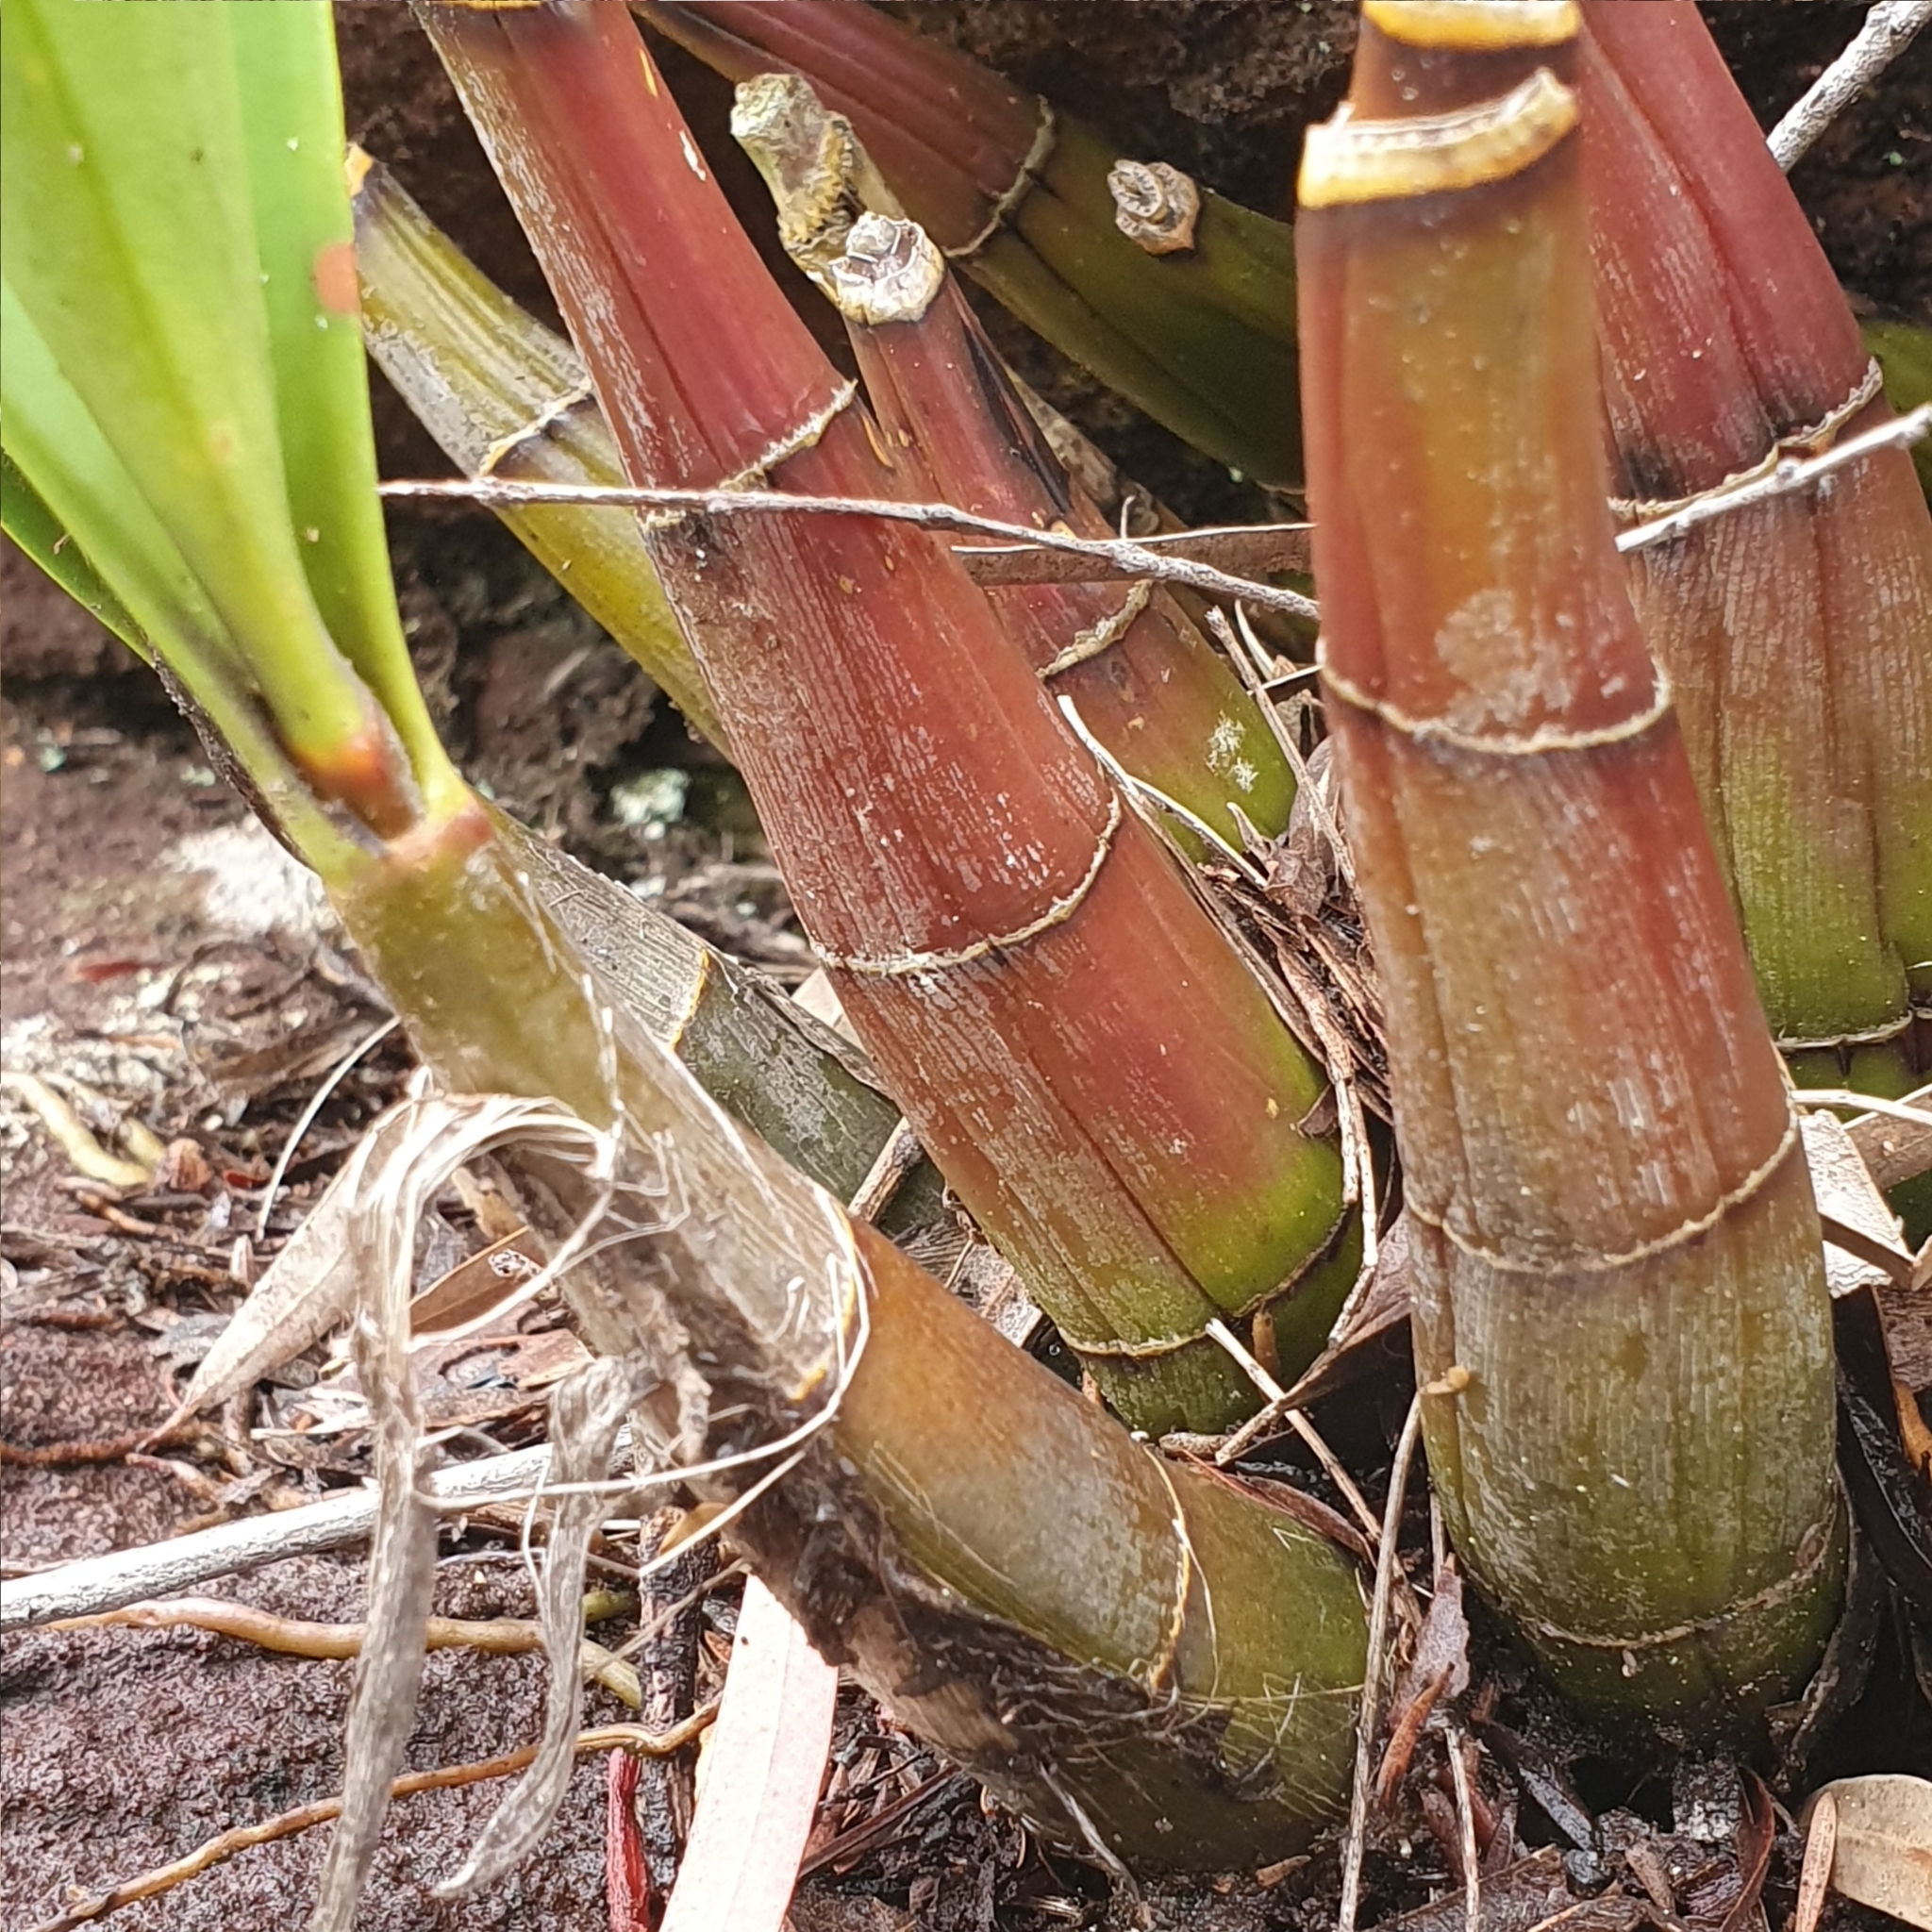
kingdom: Plantae
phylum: Tracheophyta
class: Liliopsida
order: Asparagales
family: Orchidaceae
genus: Dendrobium
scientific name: Dendrobium speciosum
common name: Rock-lily
